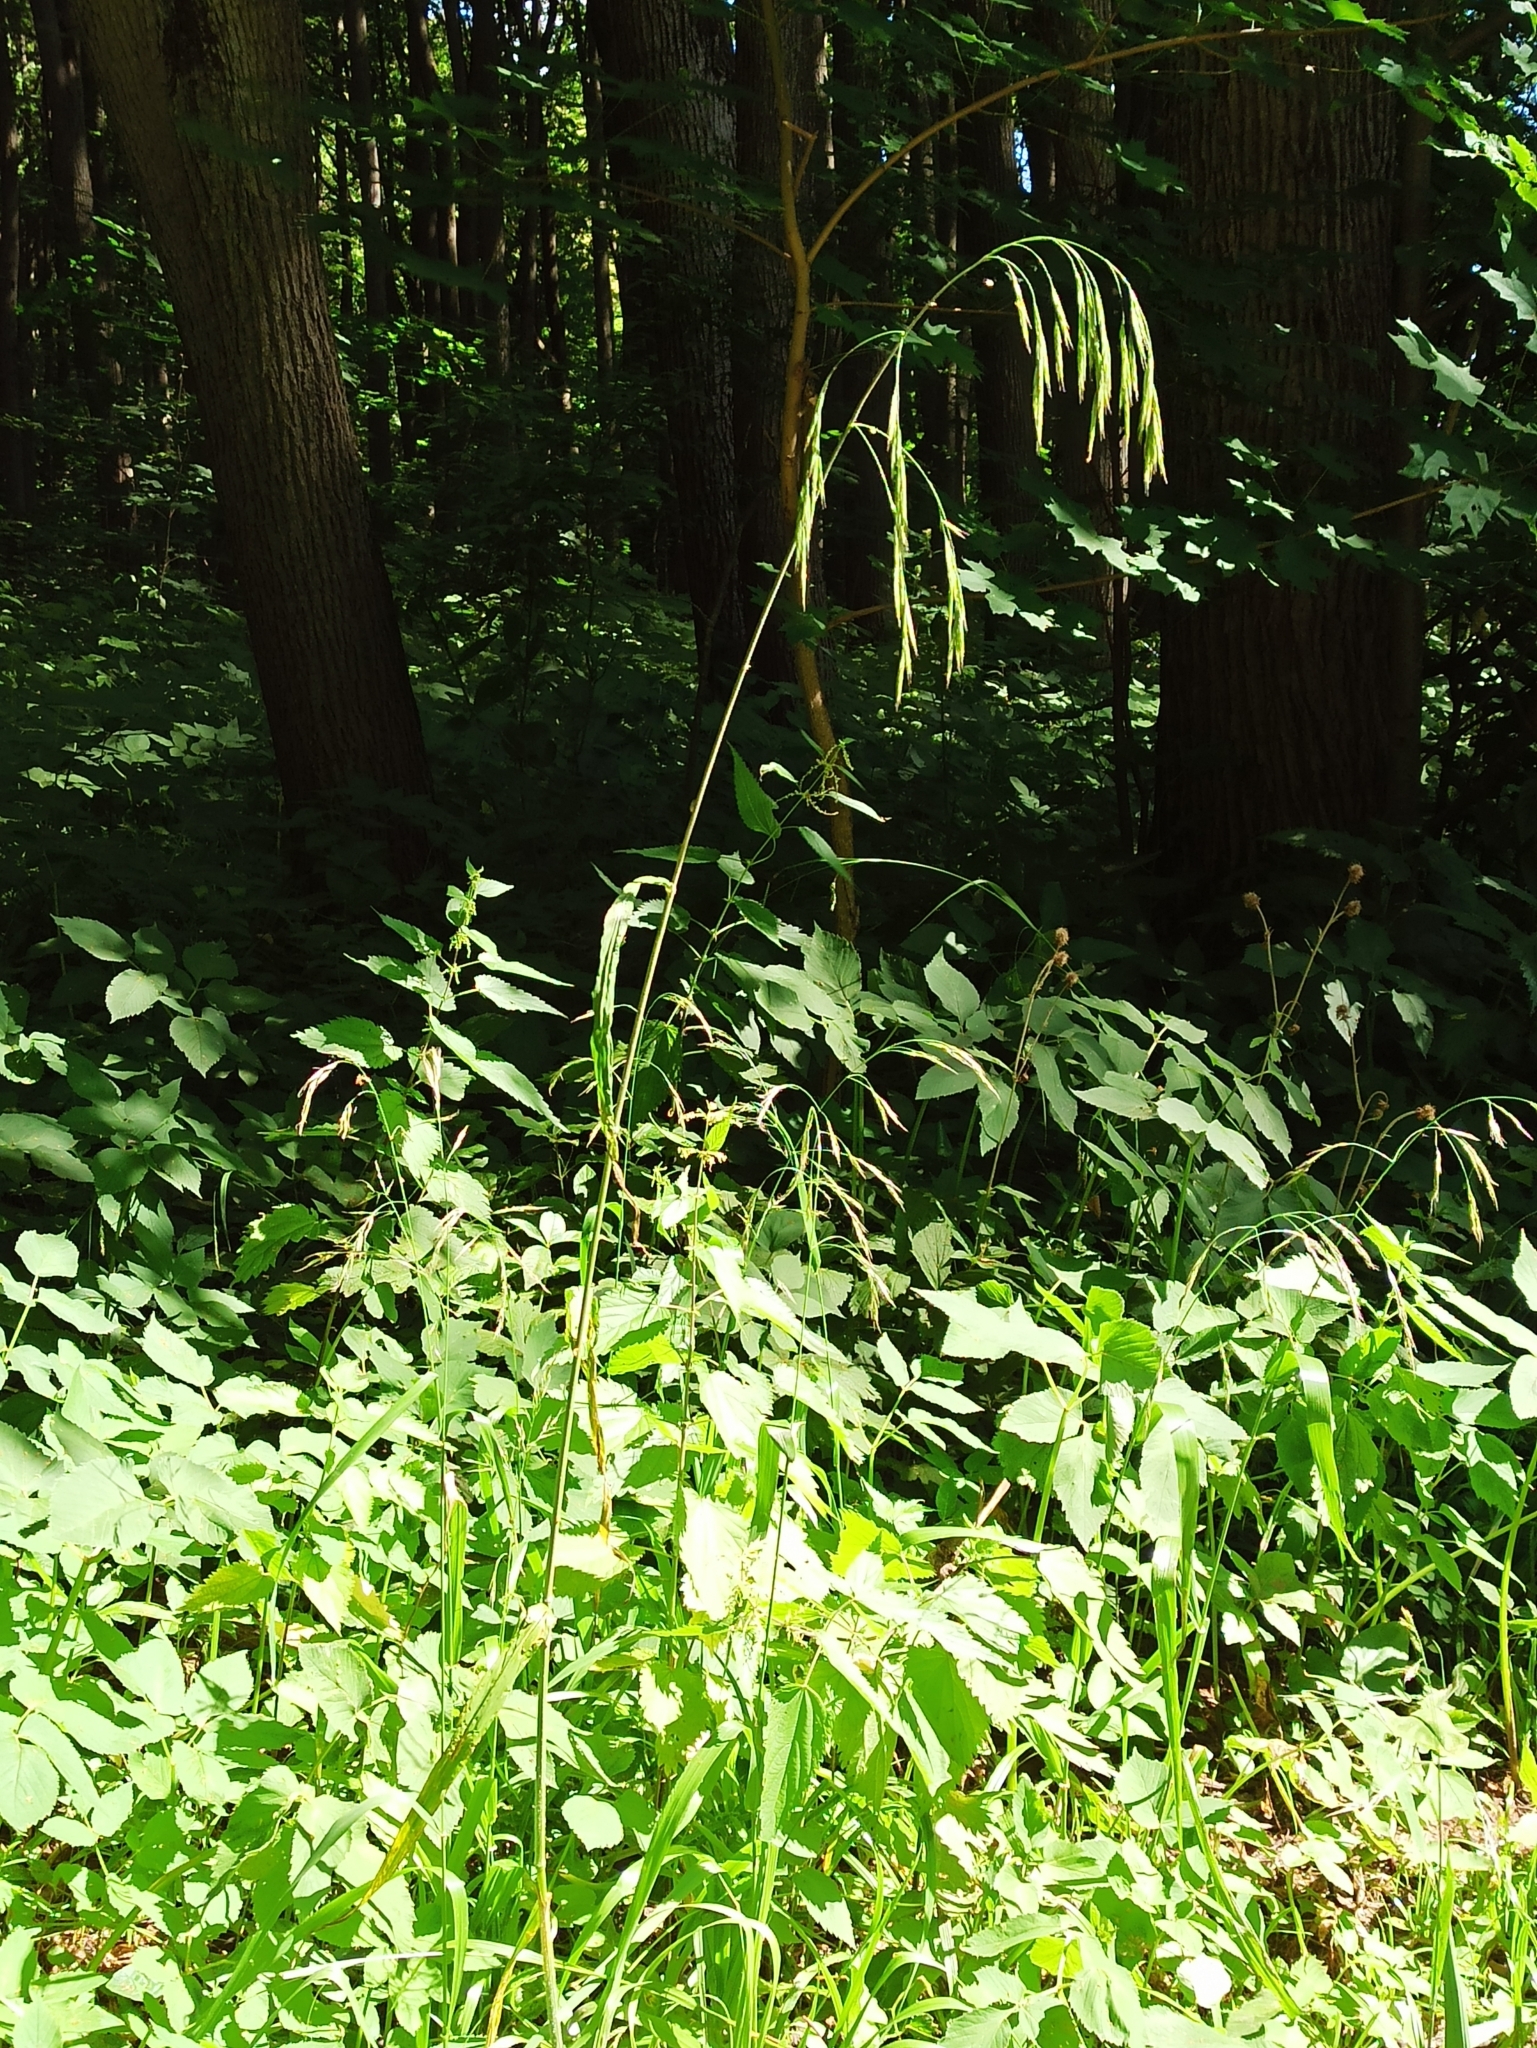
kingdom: Plantae
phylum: Tracheophyta
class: Liliopsida
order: Poales
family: Poaceae
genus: Bromus
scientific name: Bromus benekenii
